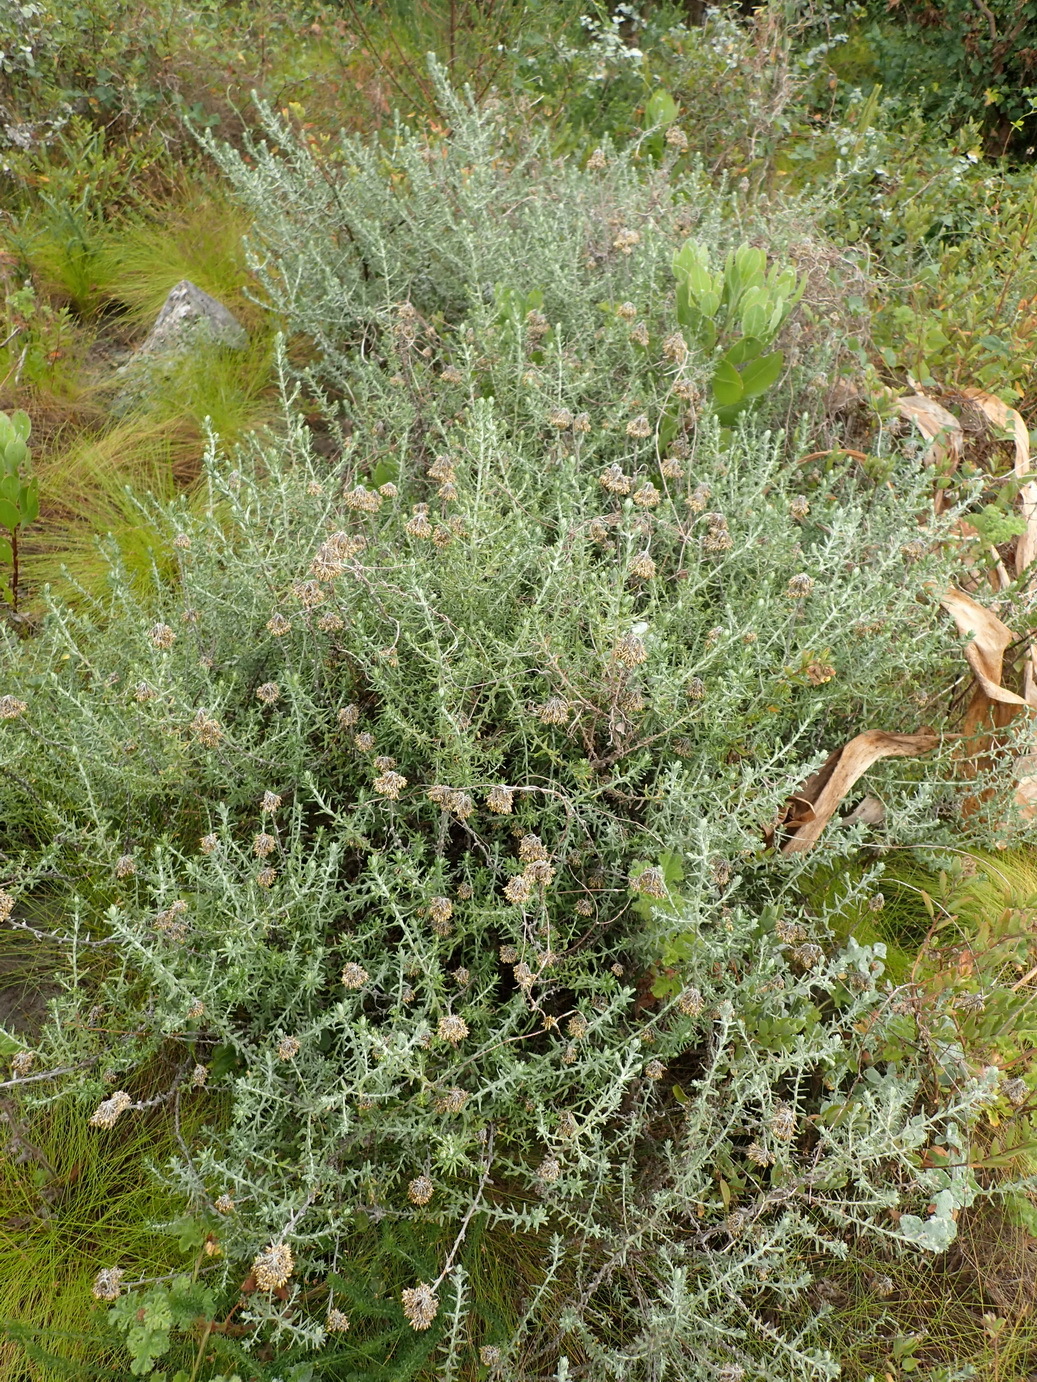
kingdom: Plantae
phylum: Tracheophyta
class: Magnoliopsida
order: Asterales
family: Asteraceae
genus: Helichrysum
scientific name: Helichrysum cymosum
